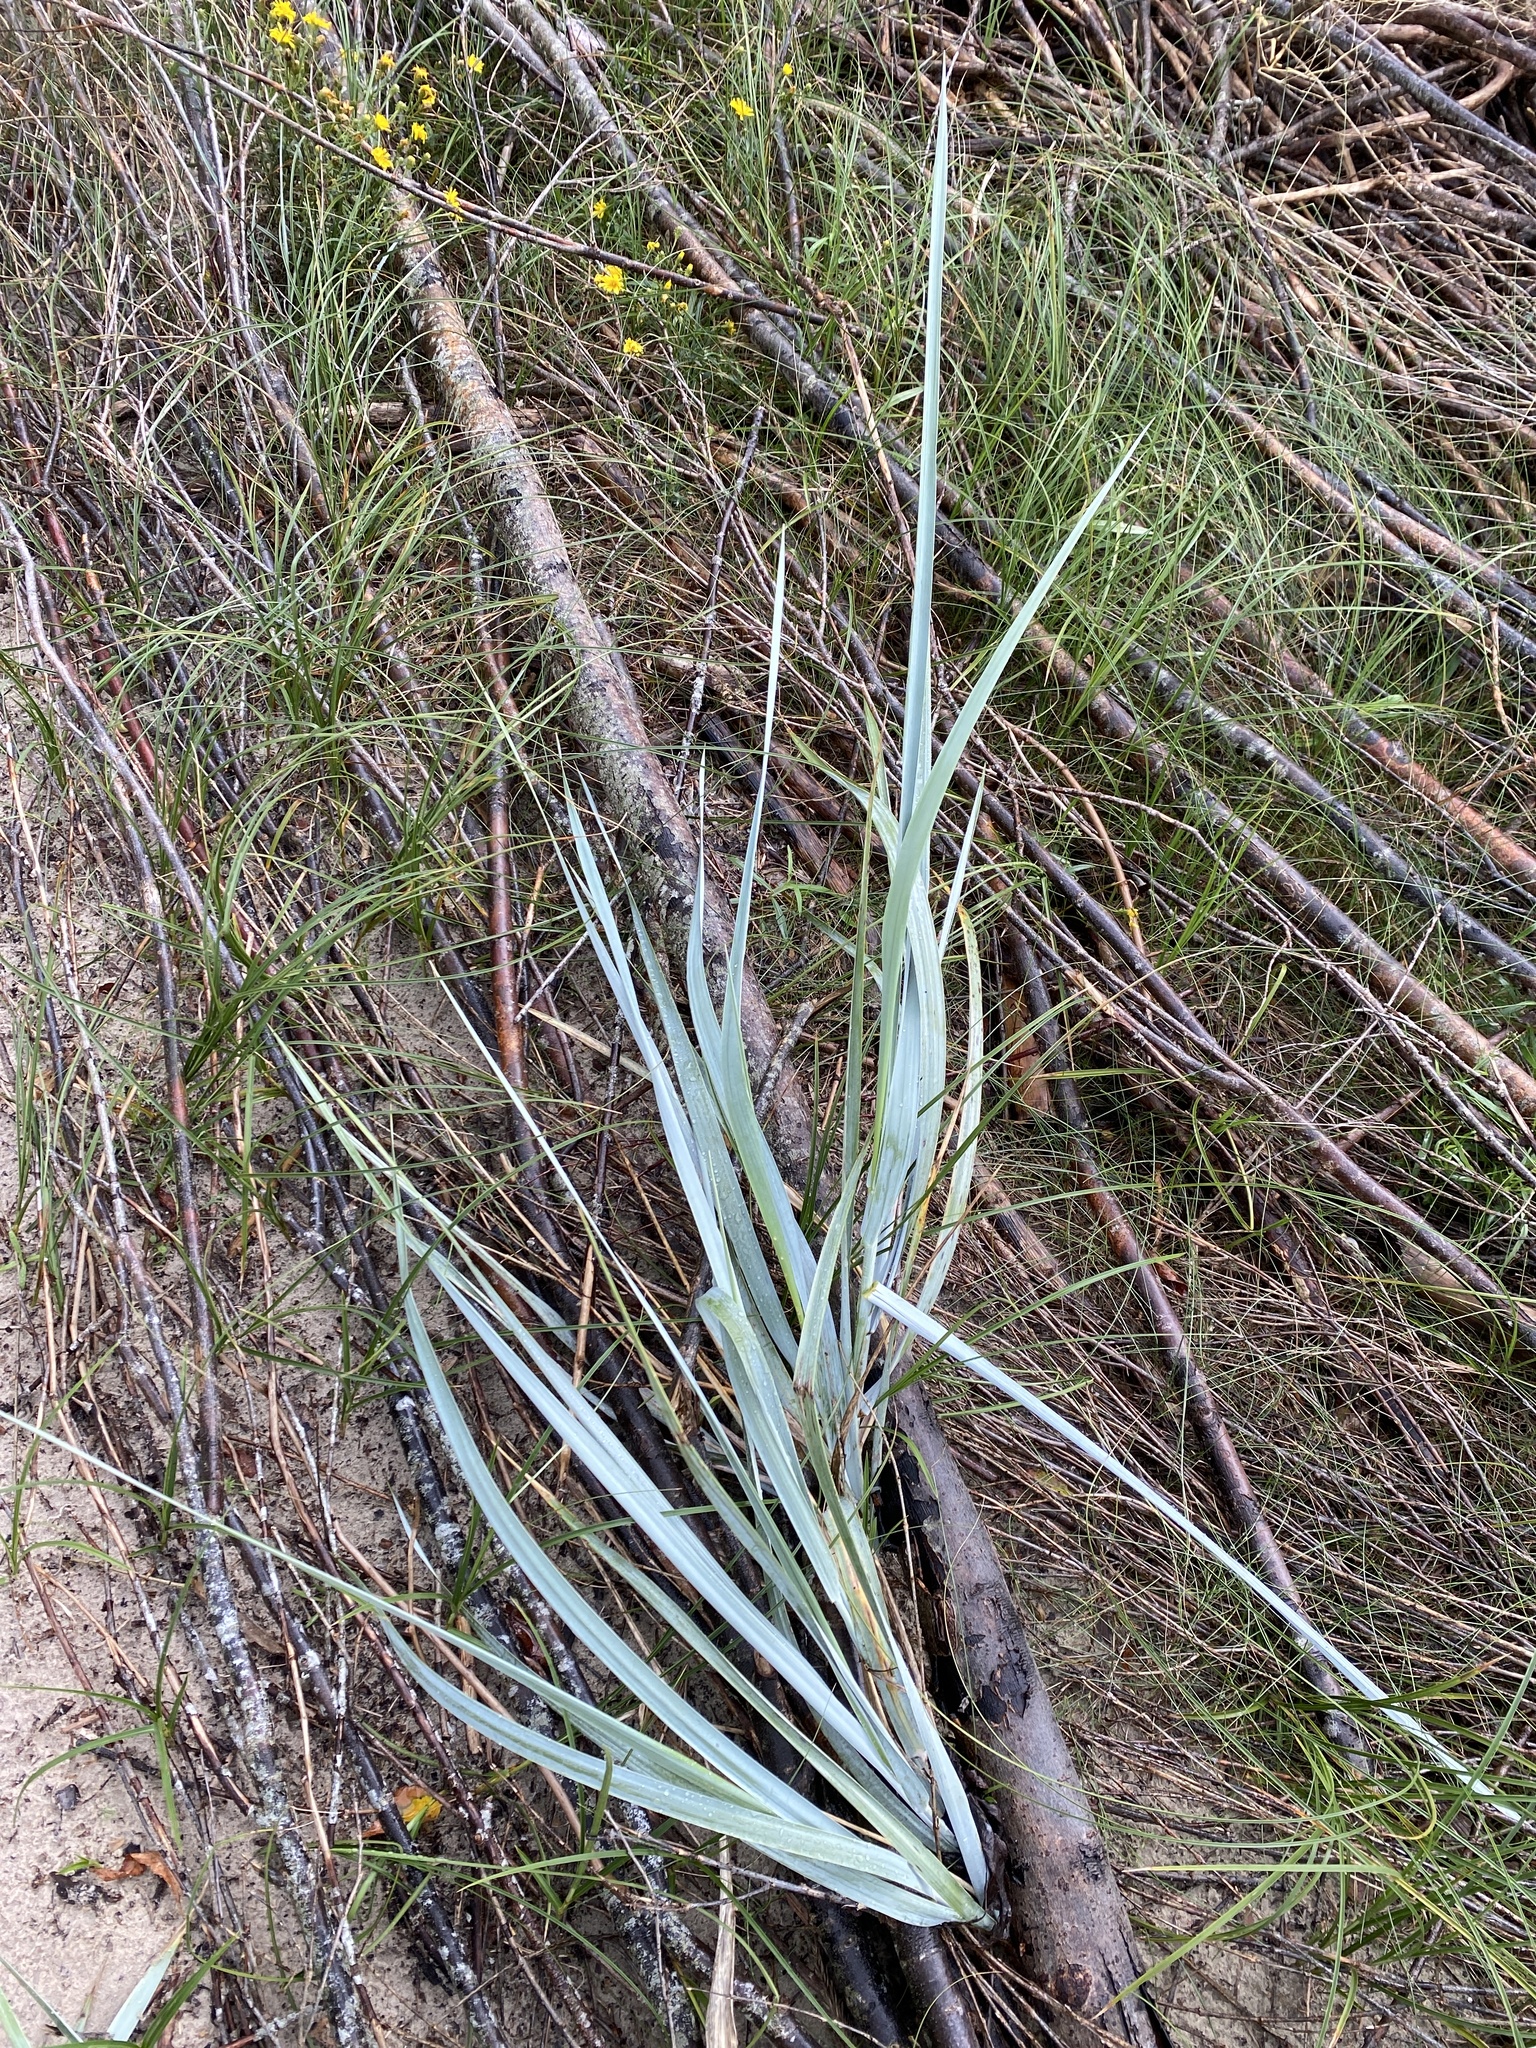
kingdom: Plantae
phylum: Tracheophyta
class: Liliopsida
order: Poales
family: Poaceae
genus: Leymus
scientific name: Leymus arenarius
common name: Lyme-grass
